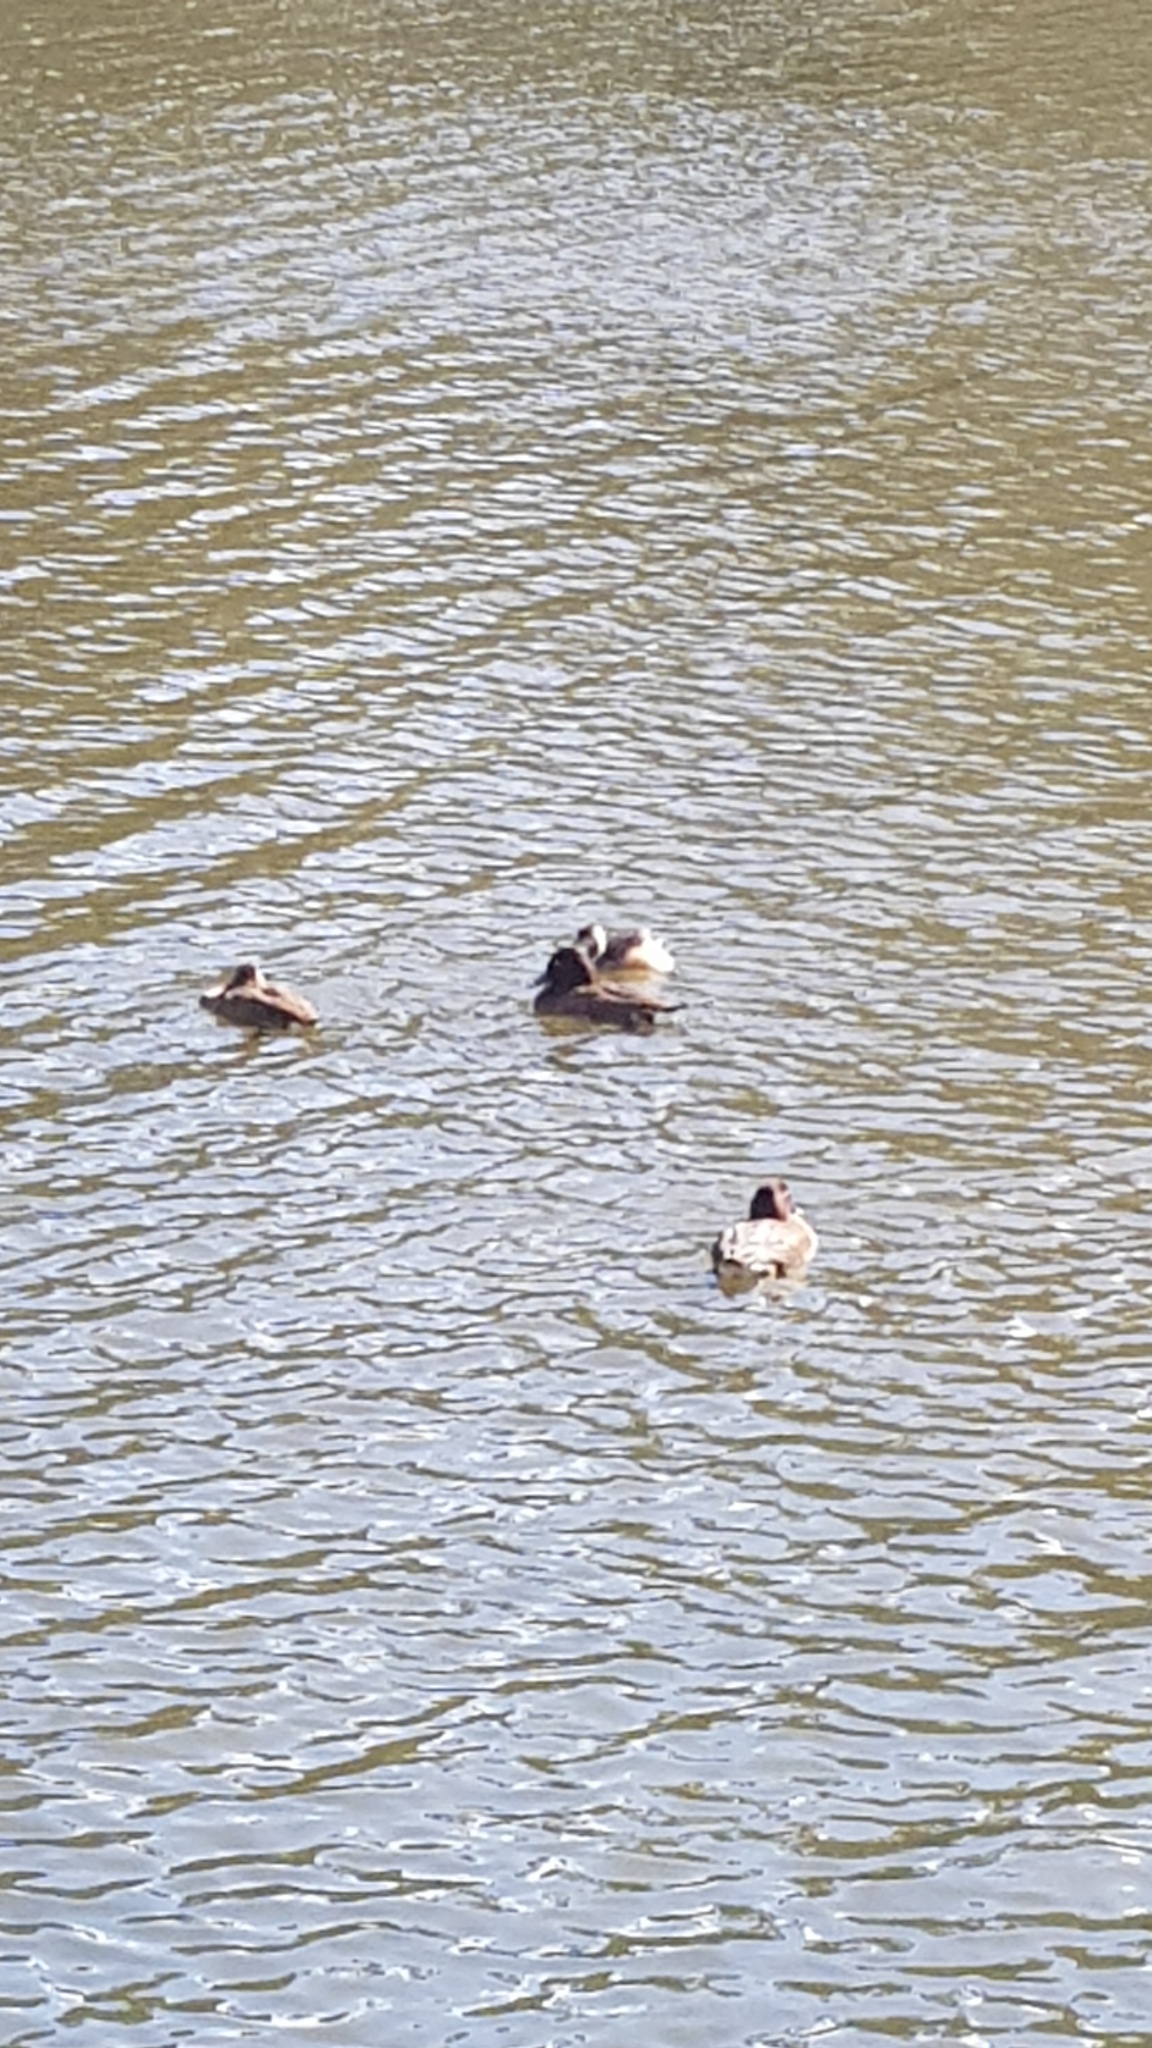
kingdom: Animalia
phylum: Chordata
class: Aves
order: Podicipediformes
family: Podicipedidae
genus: Tachybaptus
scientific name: Tachybaptus novaehollandiae
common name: Australasian grebe
